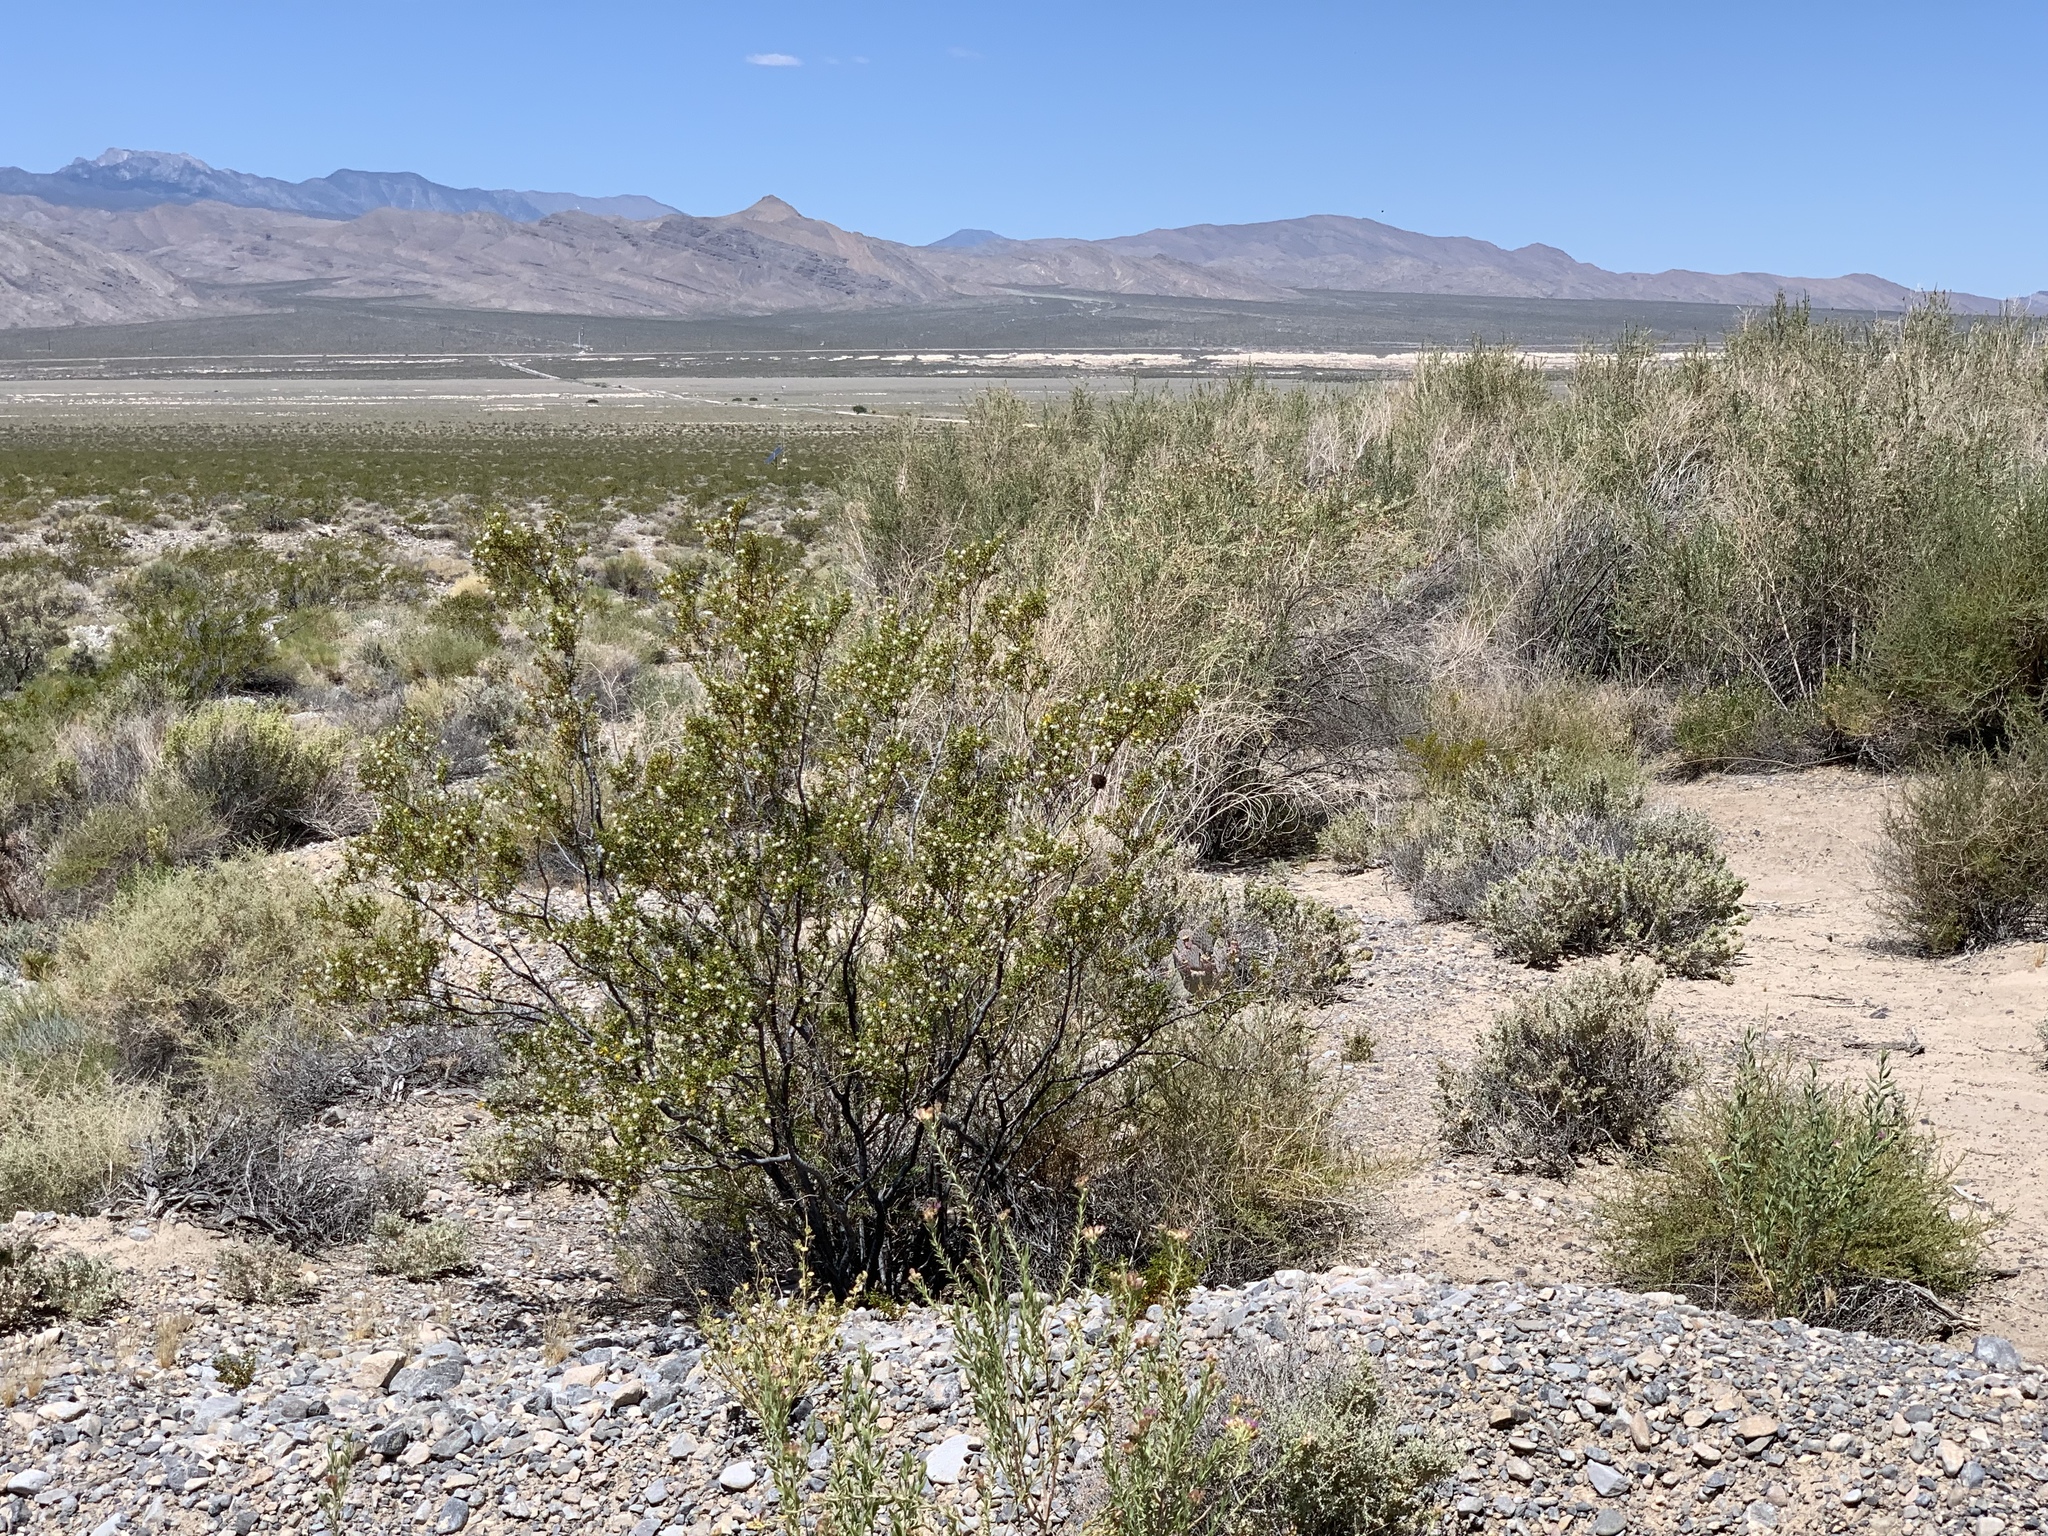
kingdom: Plantae
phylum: Tracheophyta
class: Magnoliopsida
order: Zygophyllales
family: Zygophyllaceae
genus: Larrea
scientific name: Larrea tridentata
